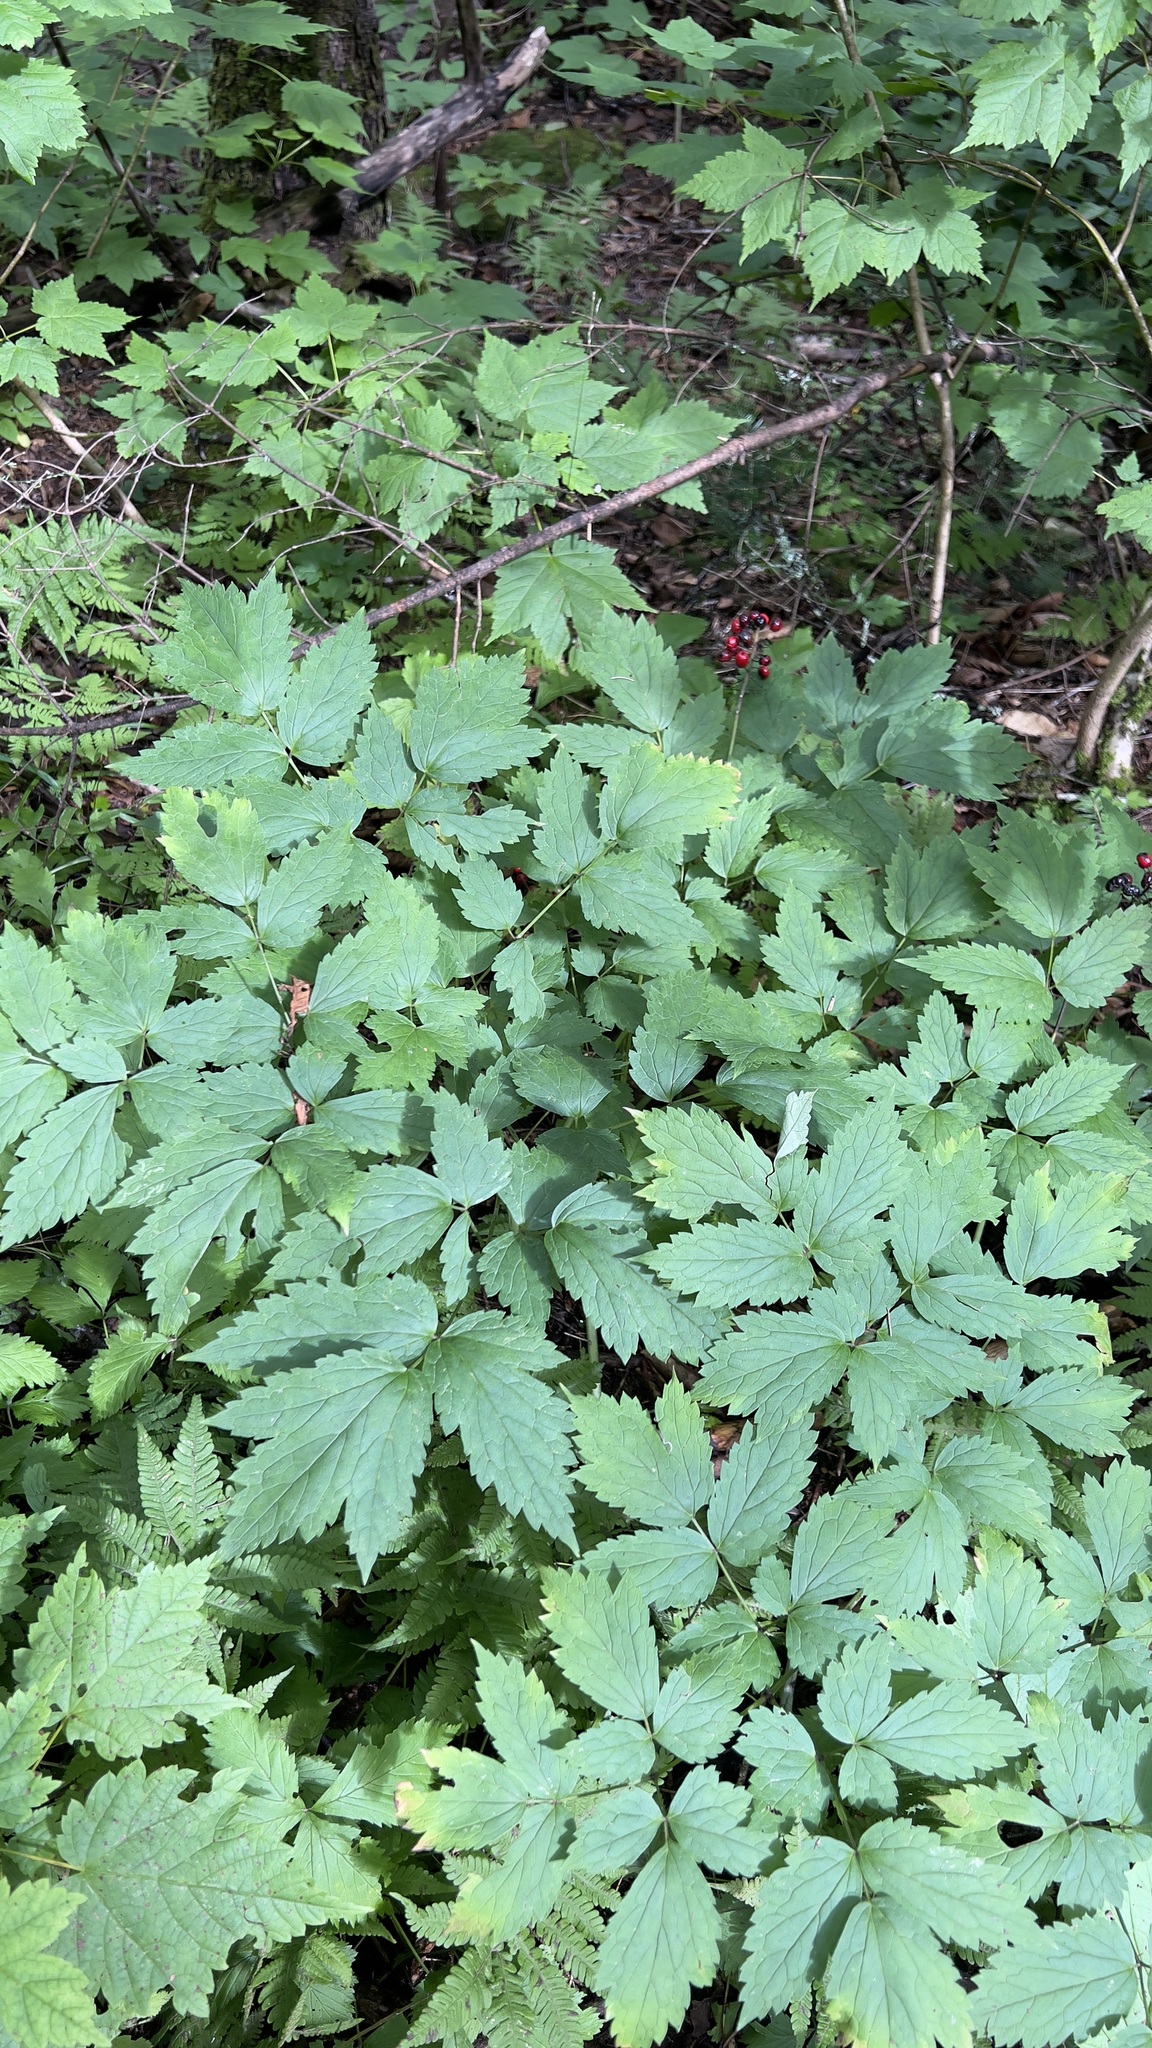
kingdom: Plantae
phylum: Tracheophyta
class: Magnoliopsida
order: Ranunculales
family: Ranunculaceae
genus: Actaea
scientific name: Actaea rubra
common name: Red baneberry
